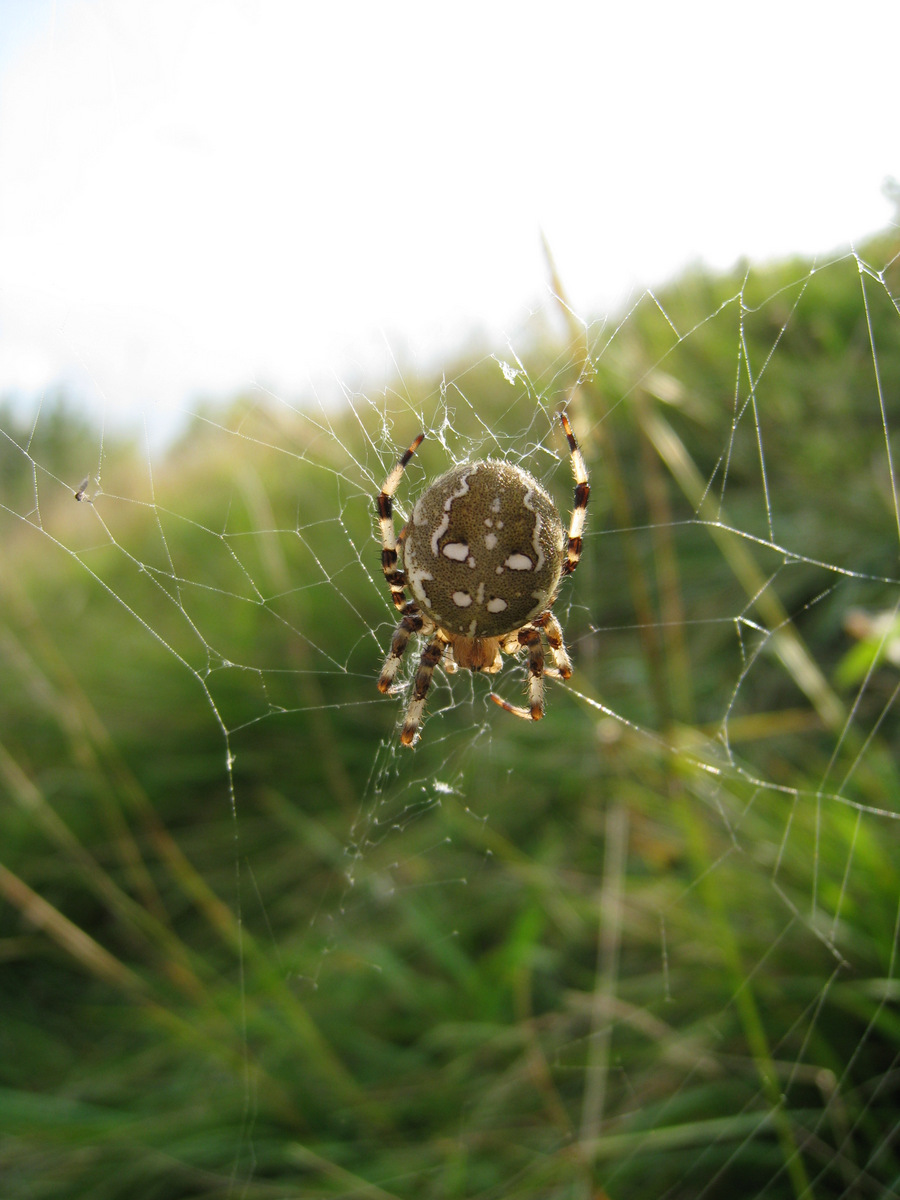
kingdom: Animalia
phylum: Arthropoda
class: Arachnida
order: Araneae
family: Araneidae
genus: Araneus
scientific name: Araneus quadratus
